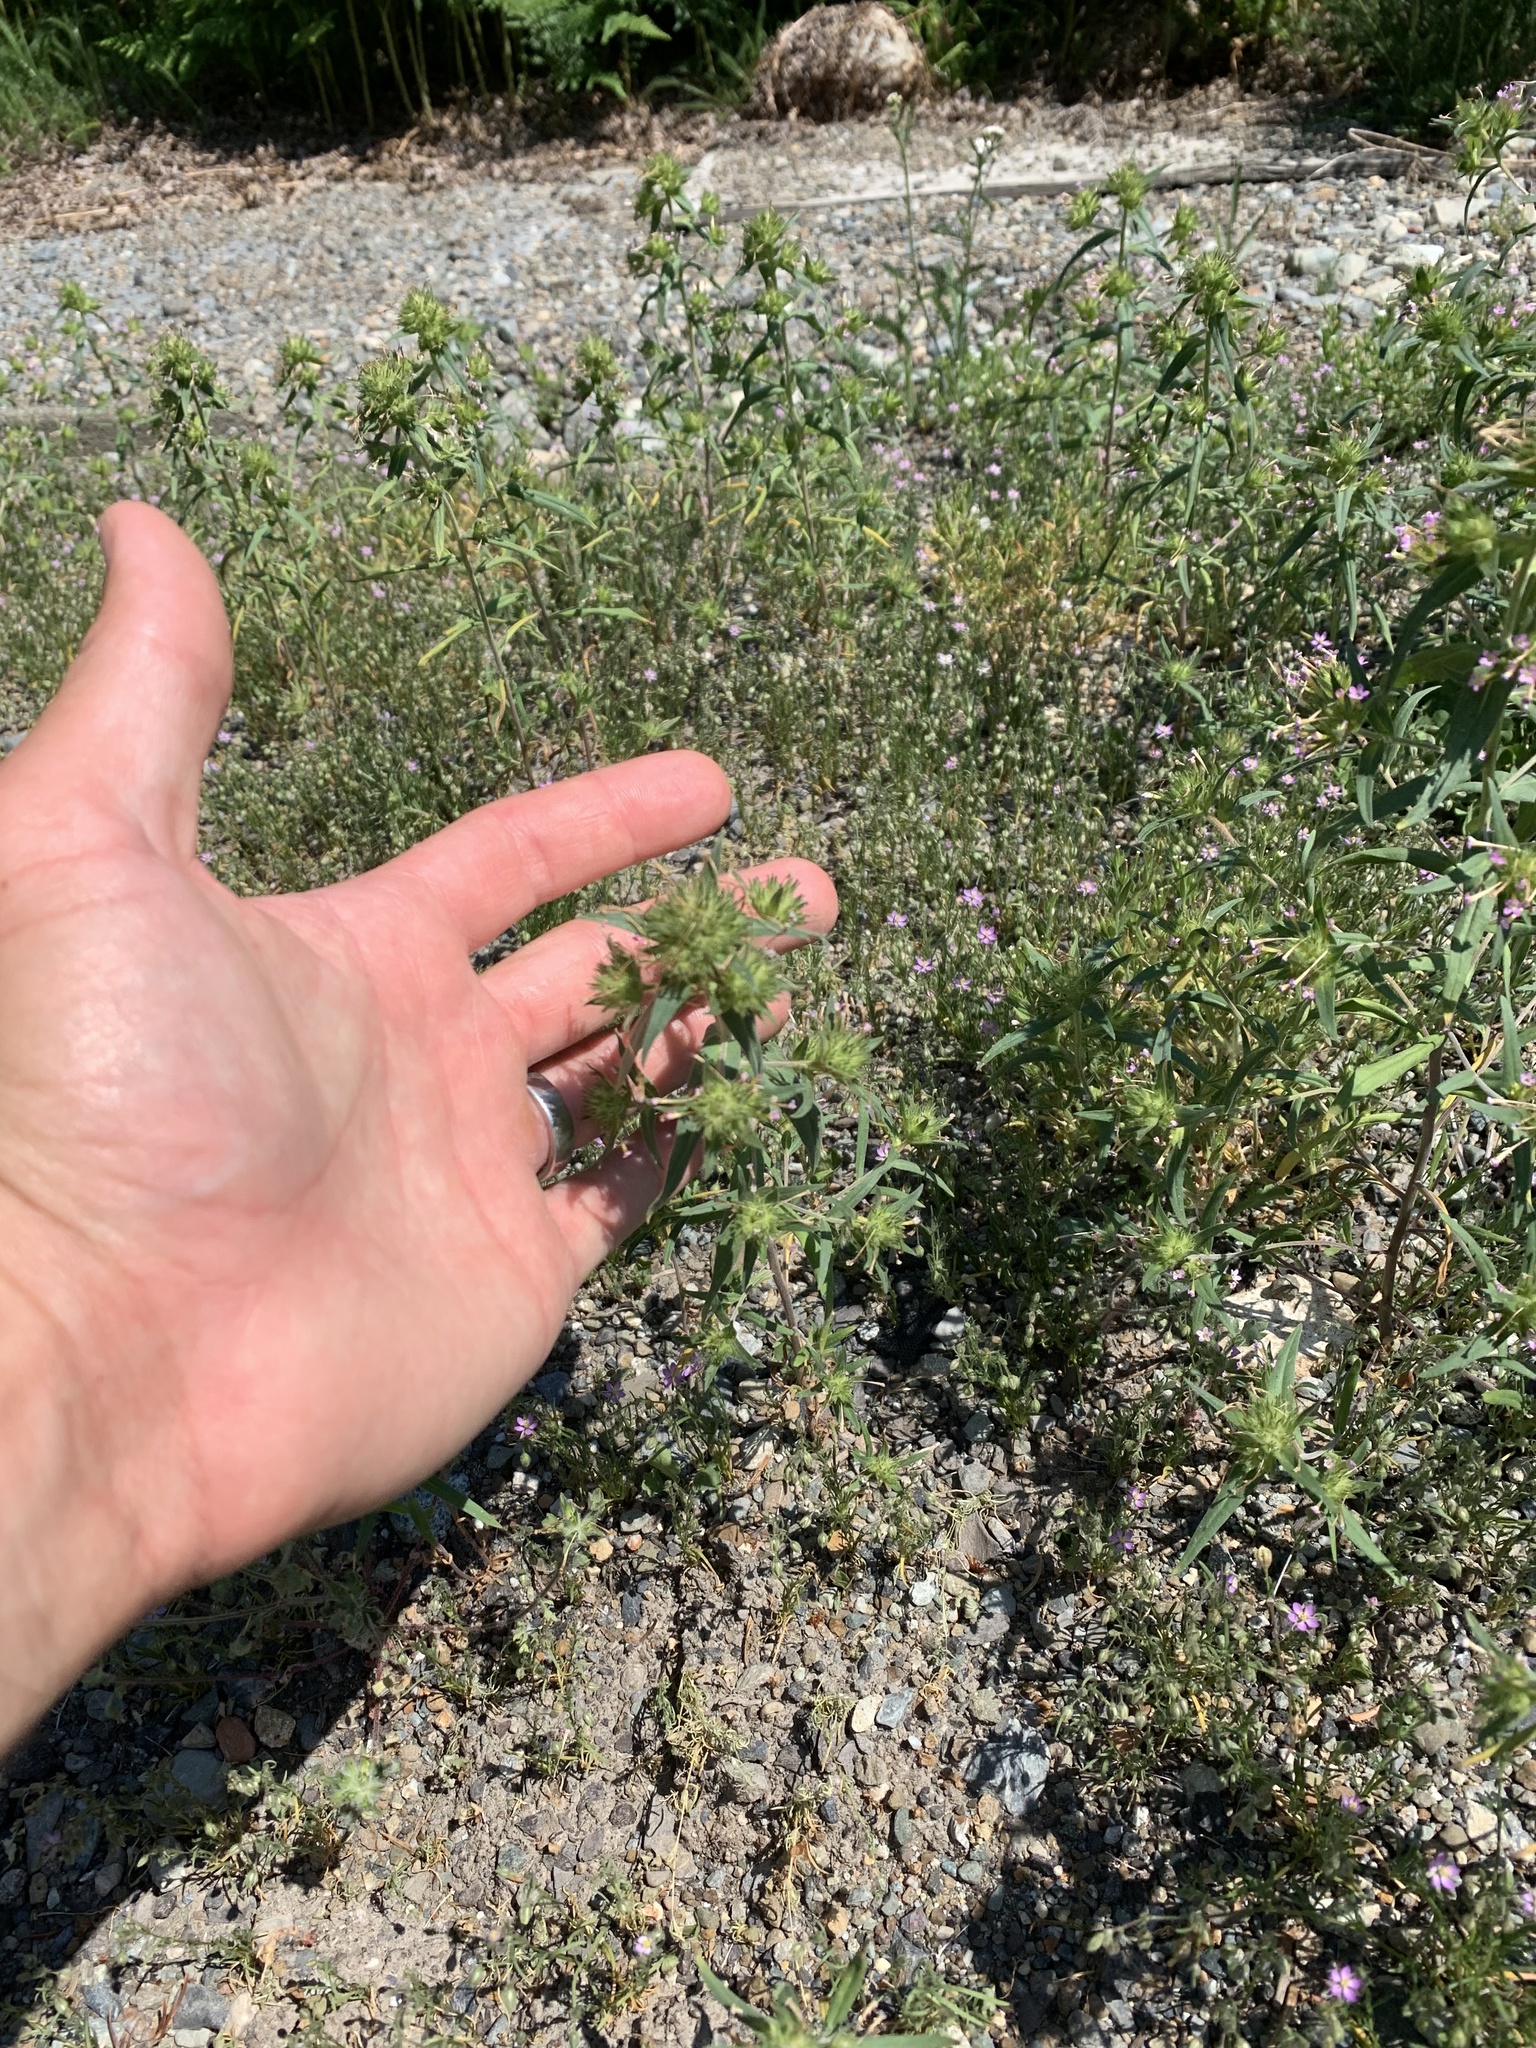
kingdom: Plantae
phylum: Tracheophyta
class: Magnoliopsida
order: Ericales
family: Polemoniaceae
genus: Collomia
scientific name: Collomia linearis
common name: Tiny trumpet
